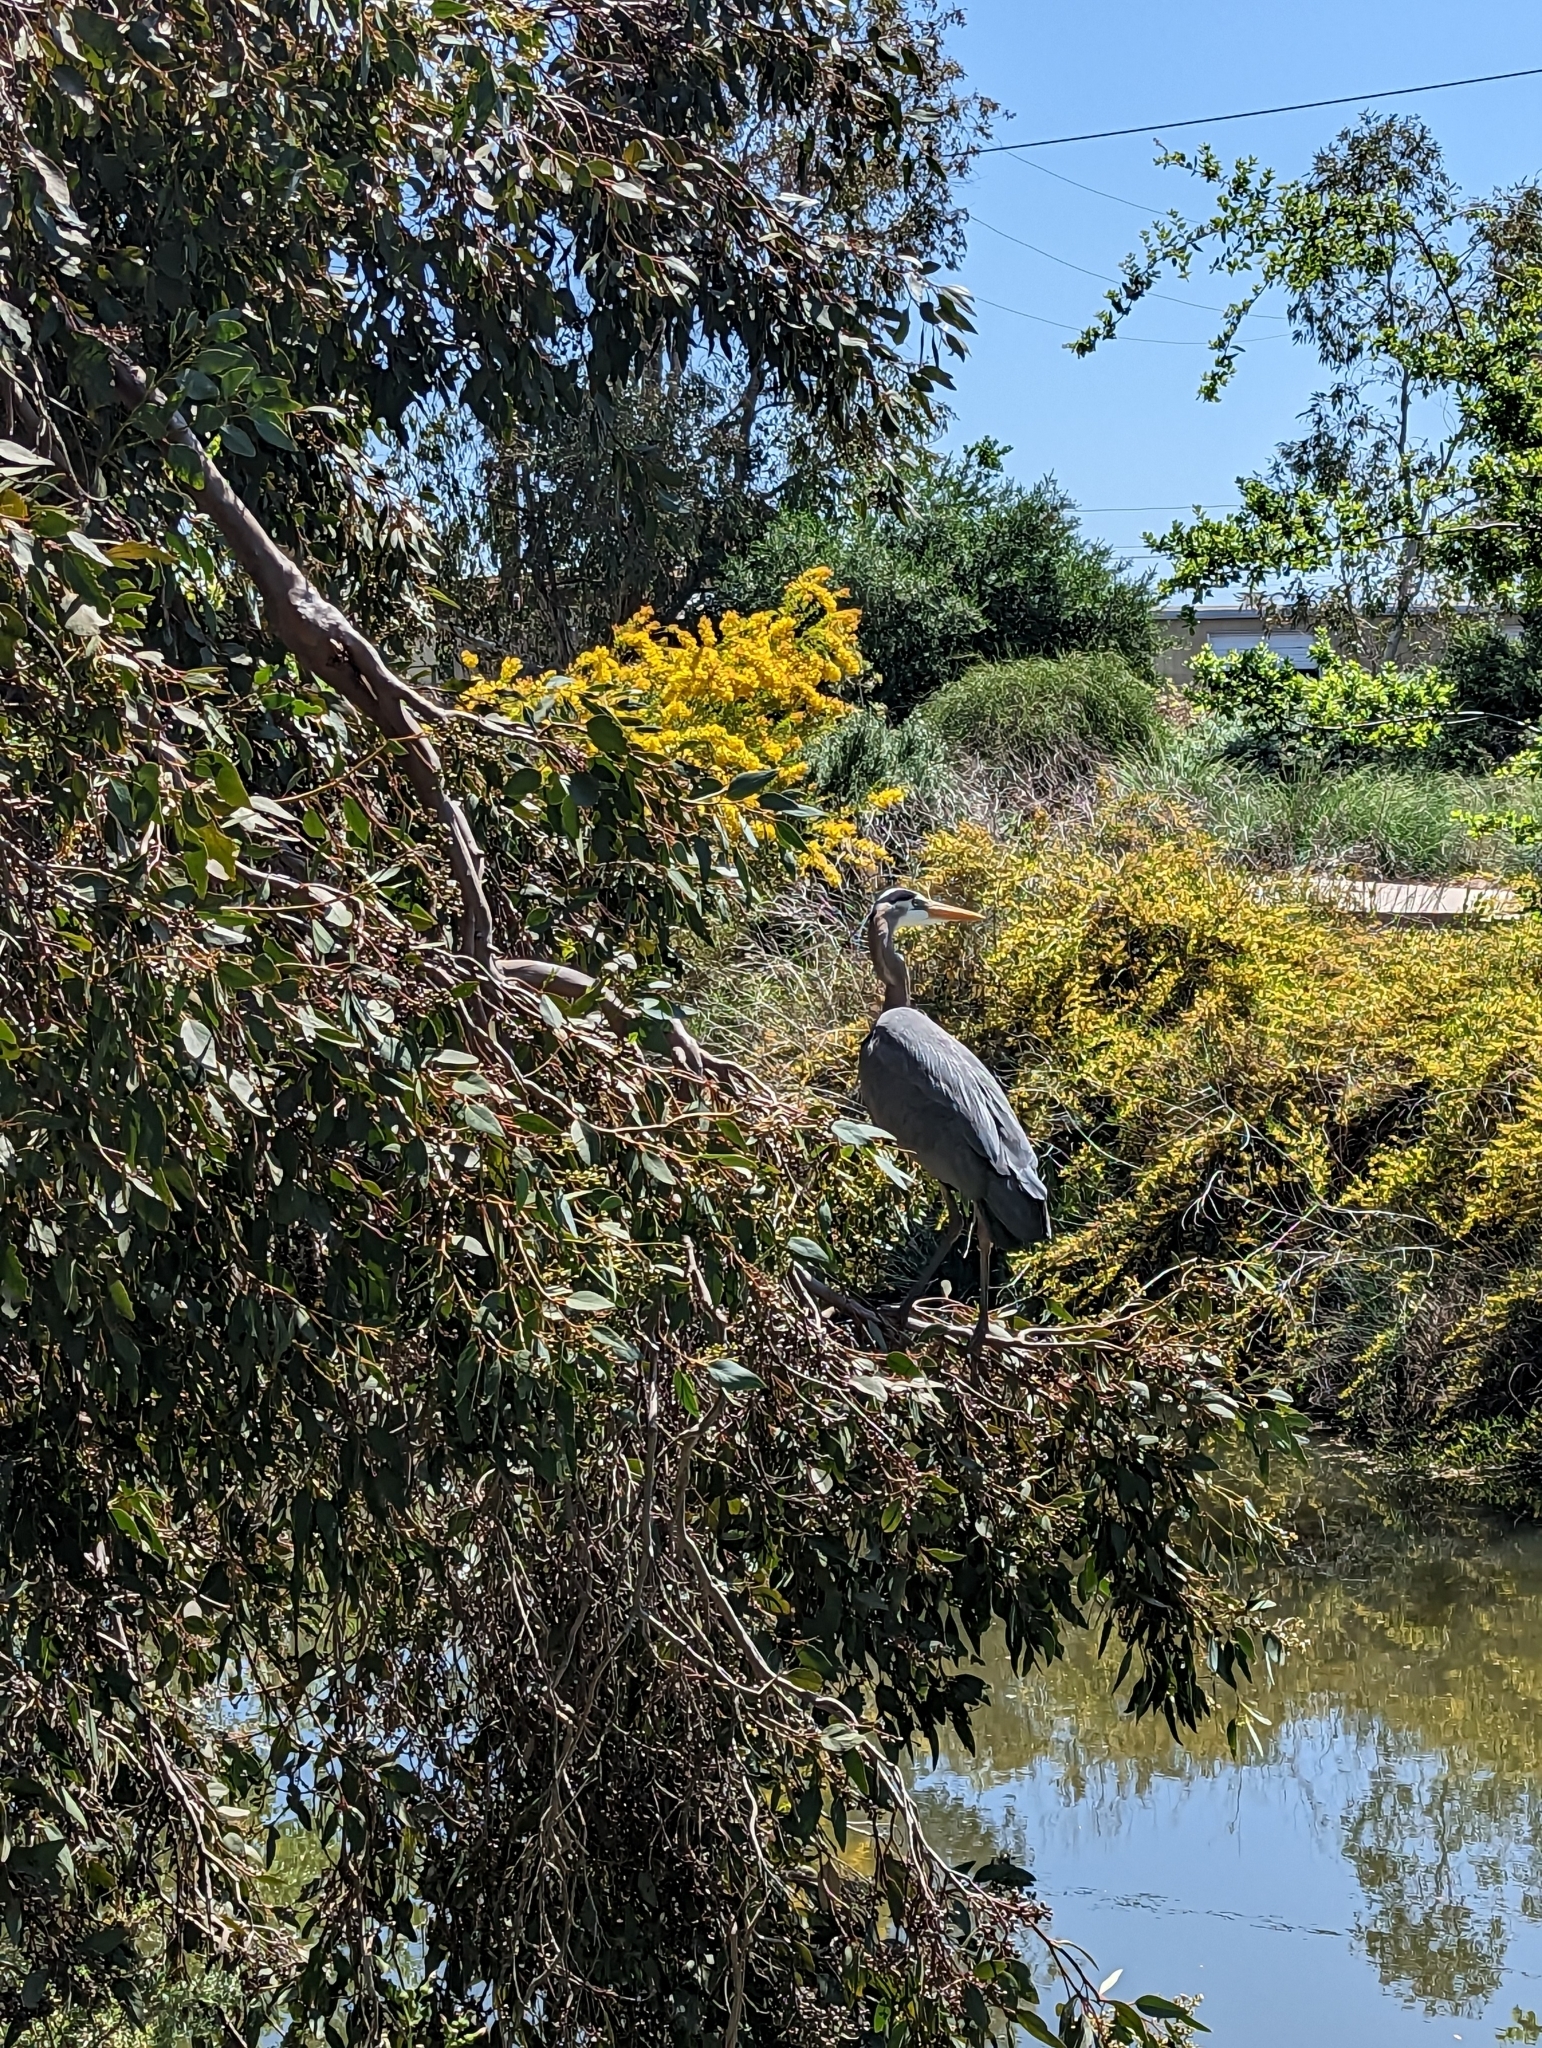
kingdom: Animalia
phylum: Chordata
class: Aves
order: Pelecaniformes
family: Ardeidae
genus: Ardea
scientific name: Ardea herodias
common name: Great blue heron
